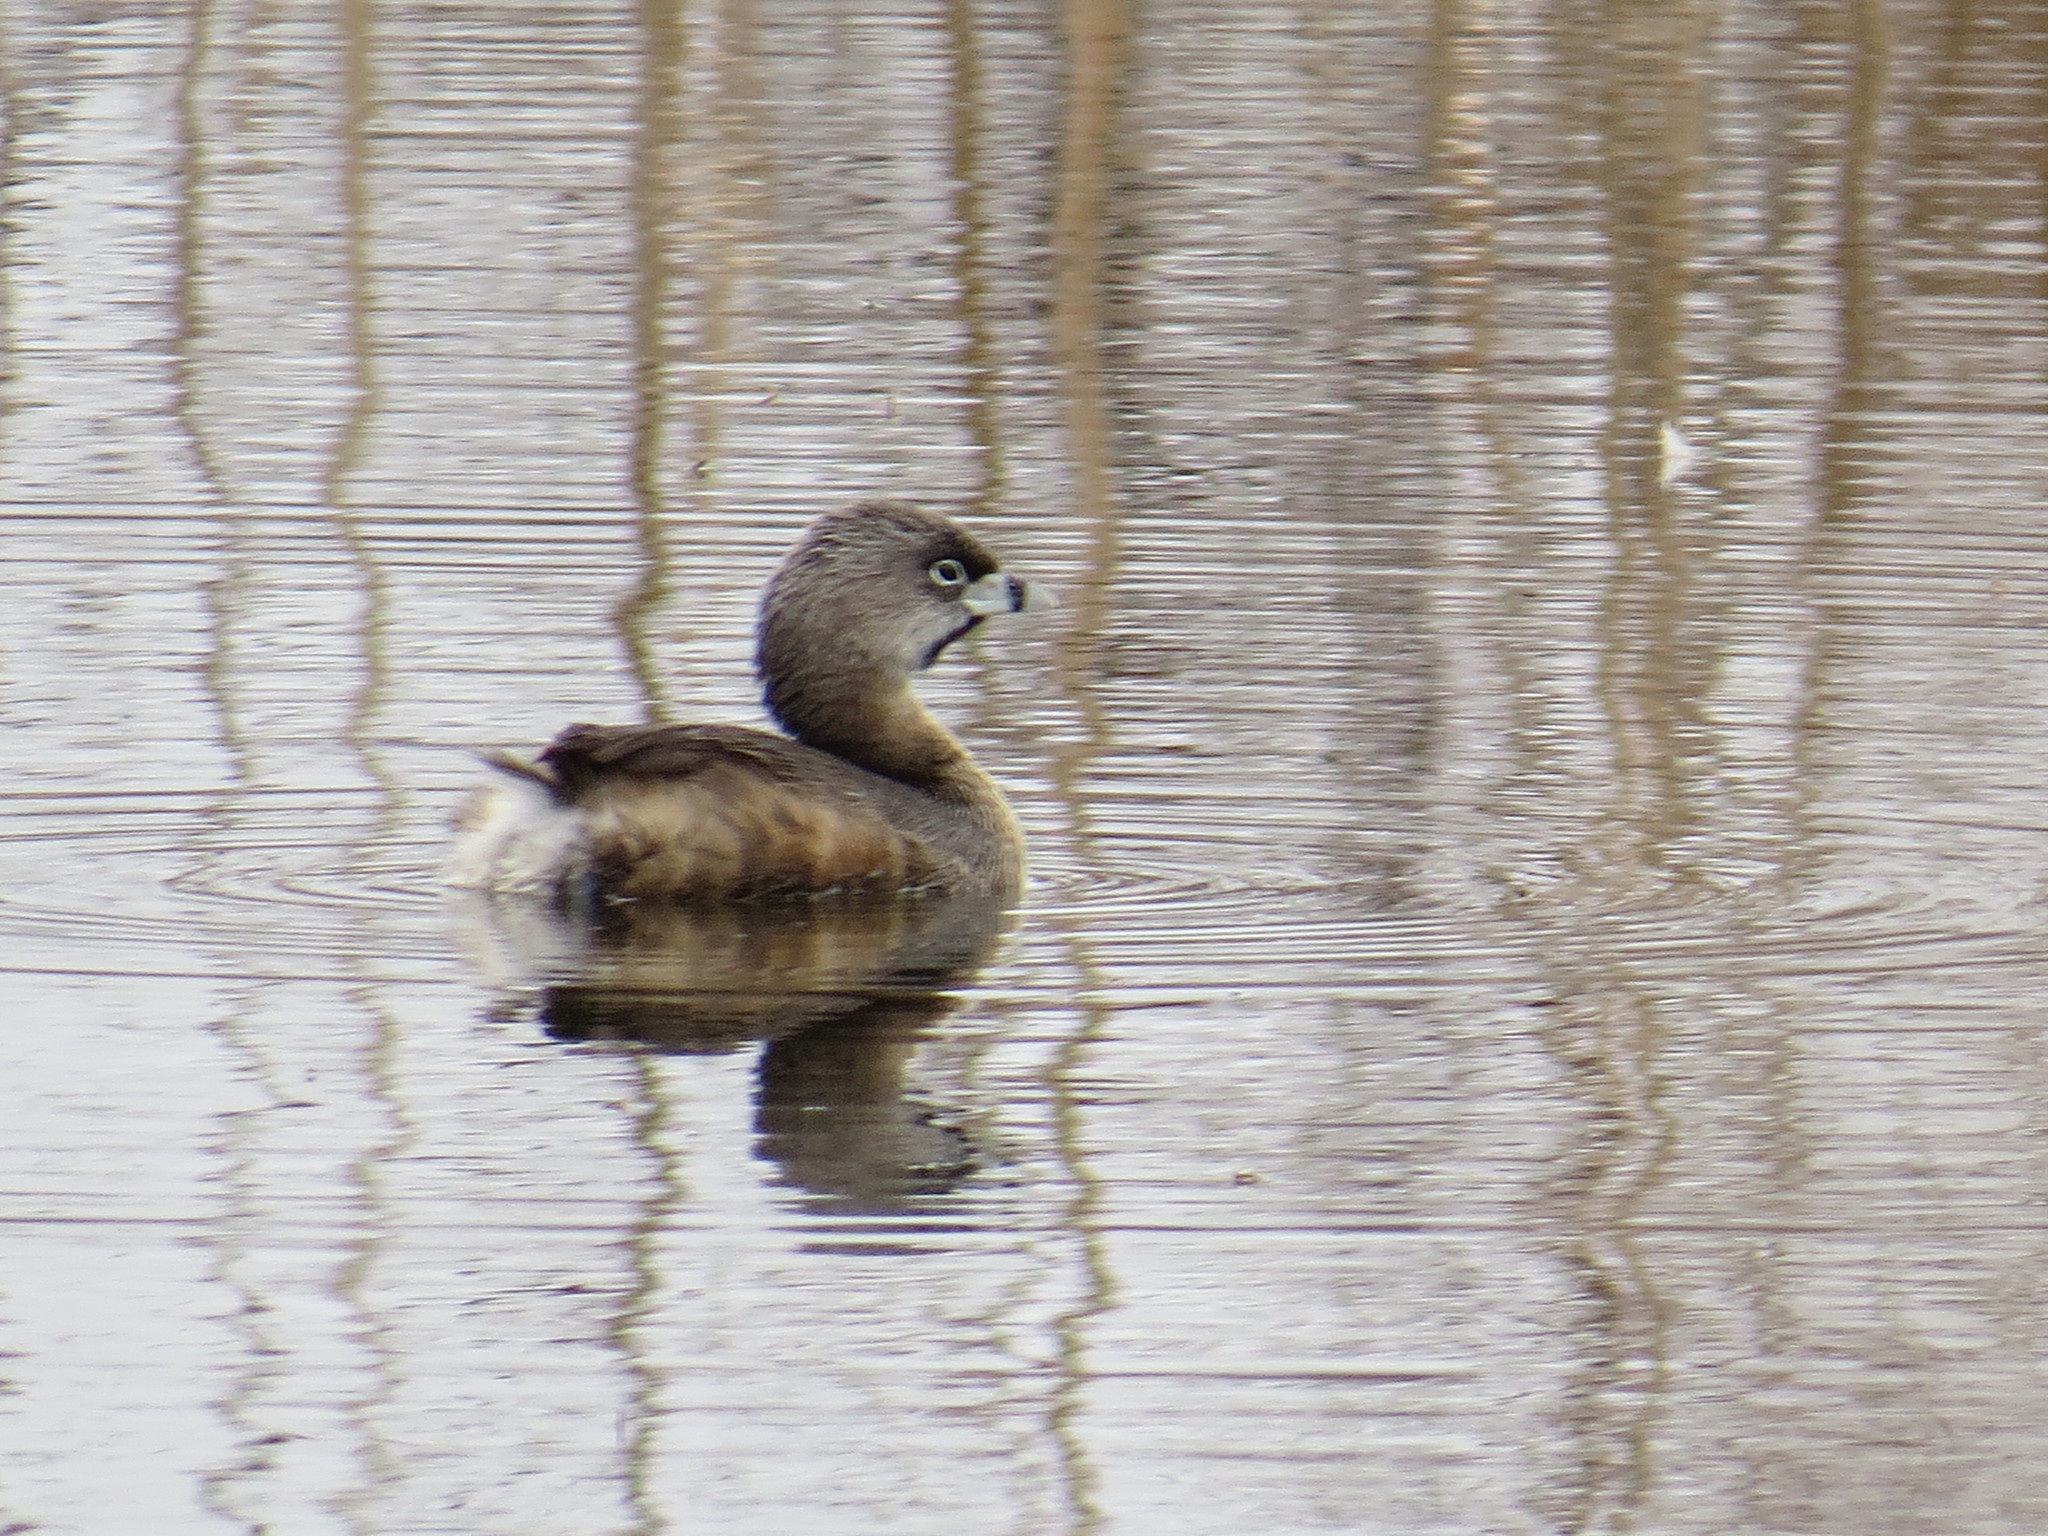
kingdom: Animalia
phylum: Chordata
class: Aves
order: Podicipediformes
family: Podicipedidae
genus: Podilymbus
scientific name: Podilymbus podiceps
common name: Pied-billed grebe
